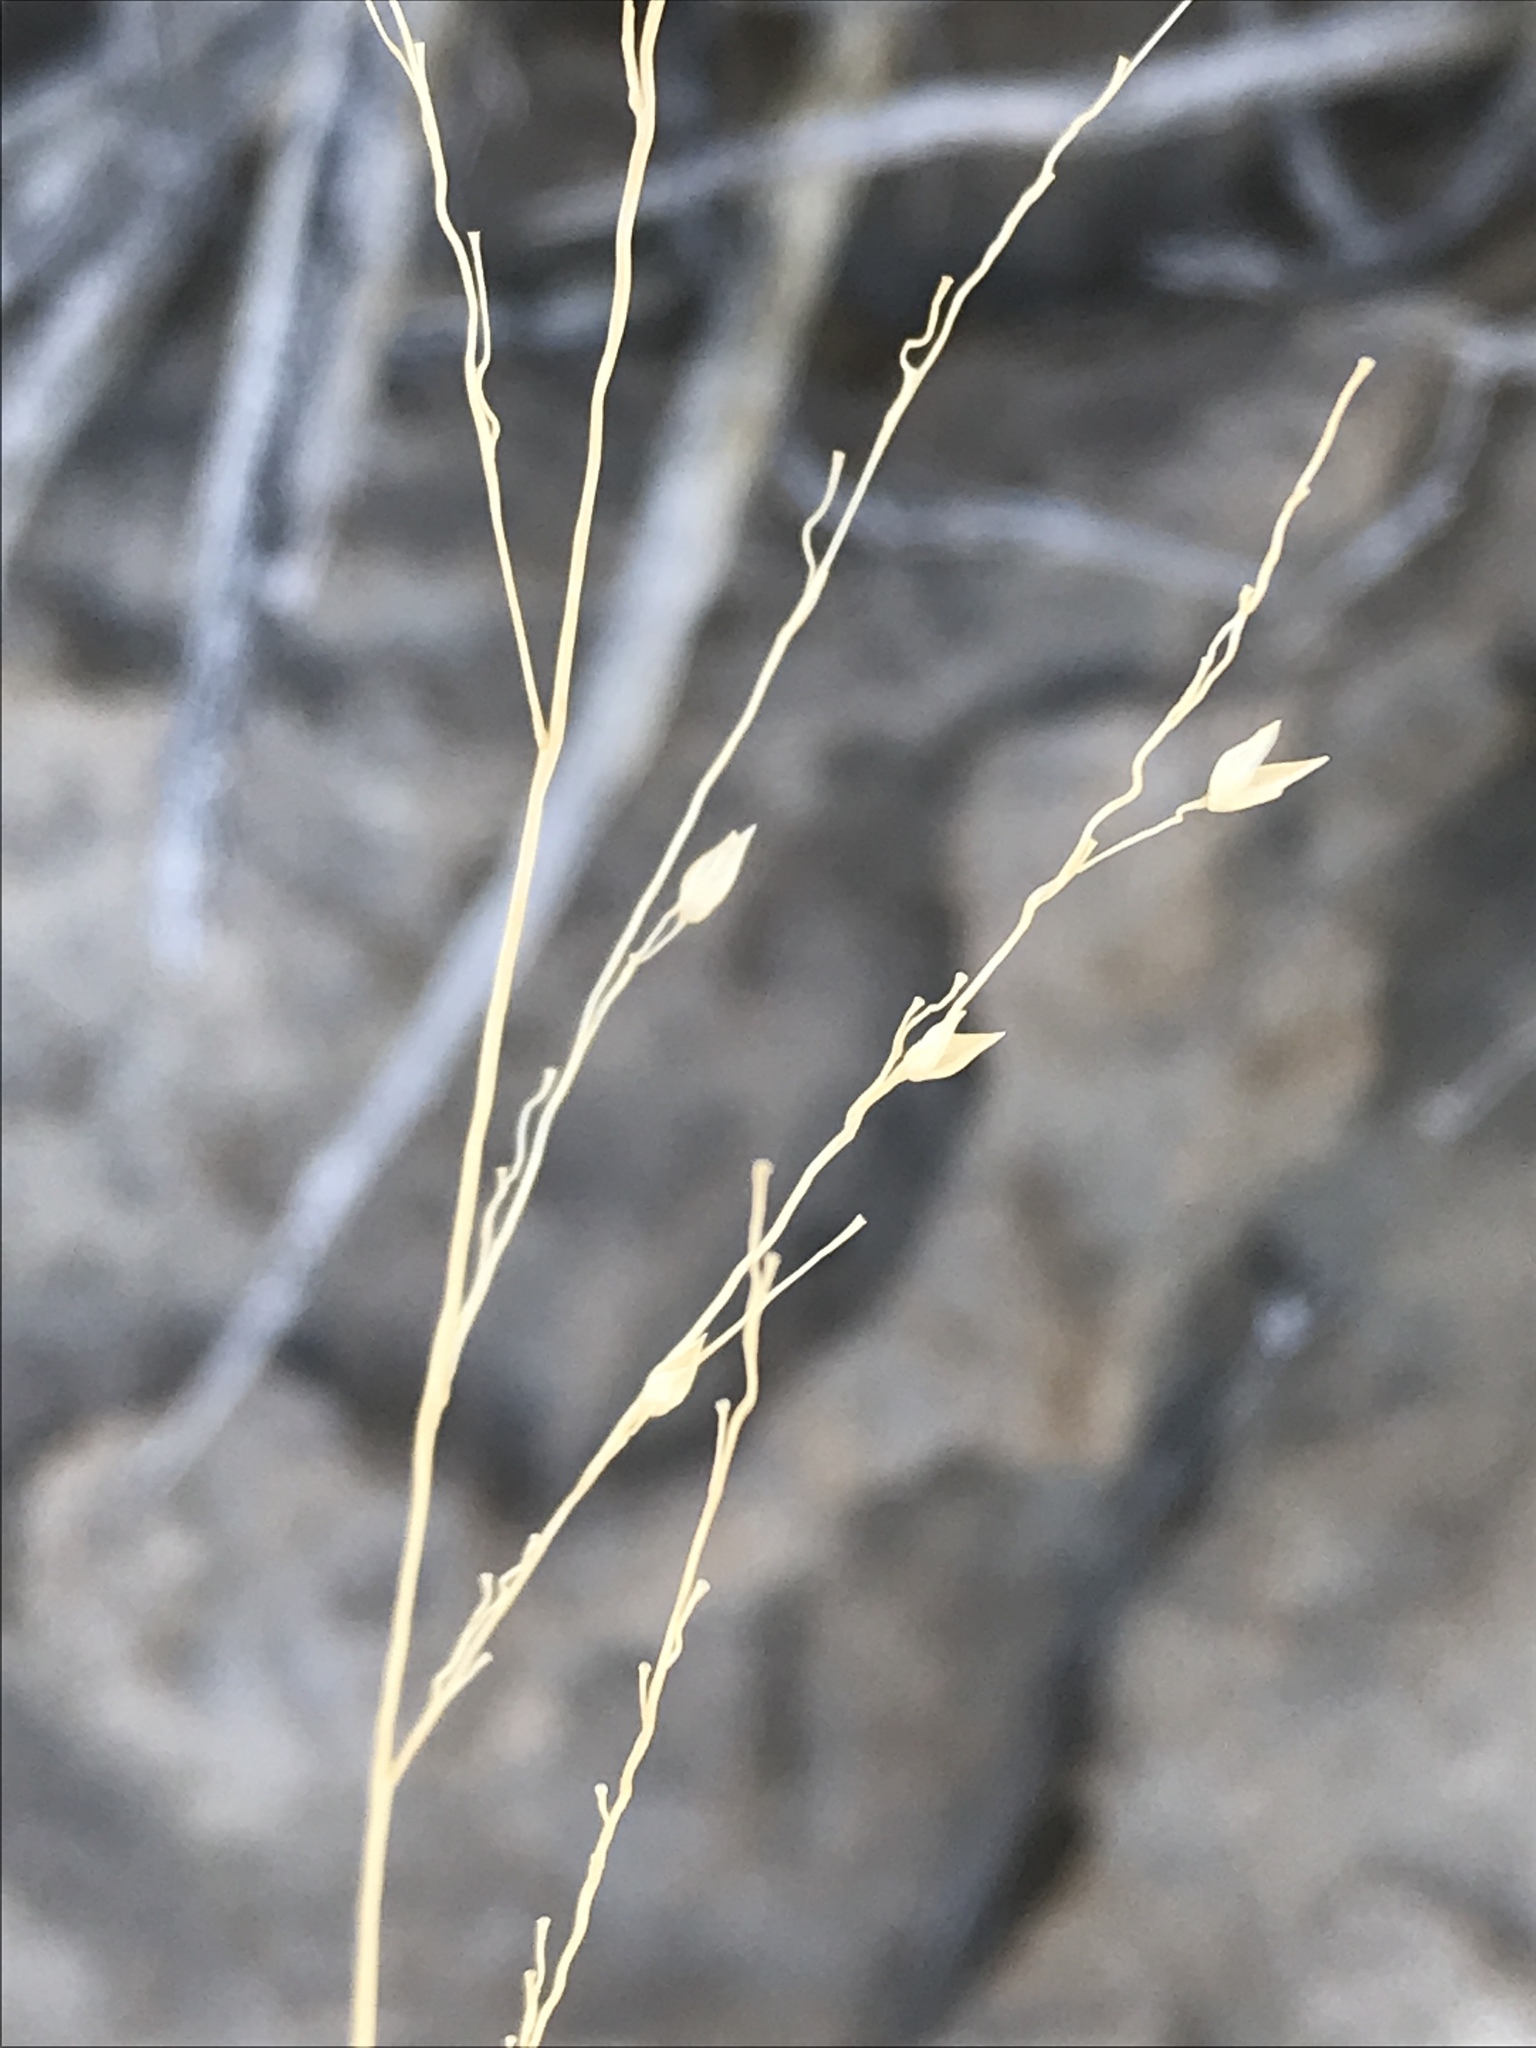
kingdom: Plantae
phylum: Tracheophyta
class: Liliopsida
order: Poales
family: Poaceae
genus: Panicum
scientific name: Panicum hallii
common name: Hall's witchgrass
